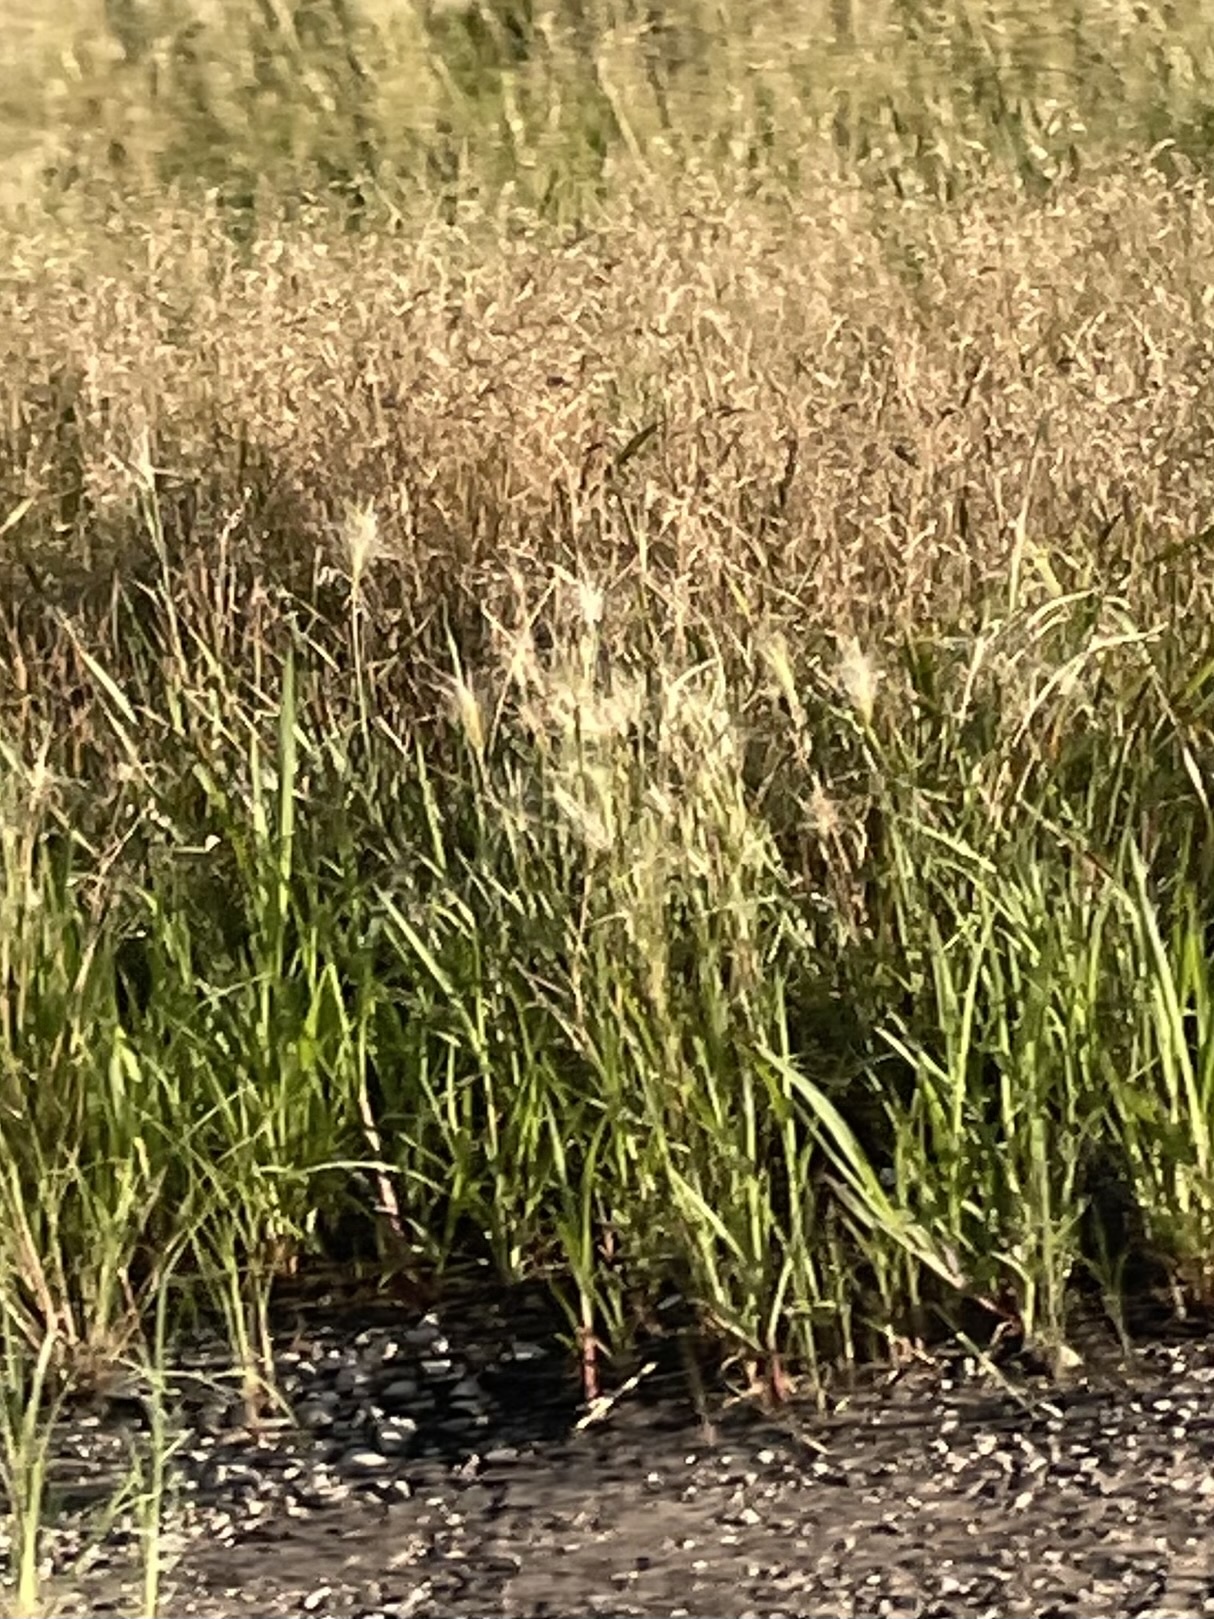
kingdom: Plantae
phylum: Tracheophyta
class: Liliopsida
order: Poales
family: Poaceae
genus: Hordeum
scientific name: Hordeum jubatum
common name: Foxtail barley
